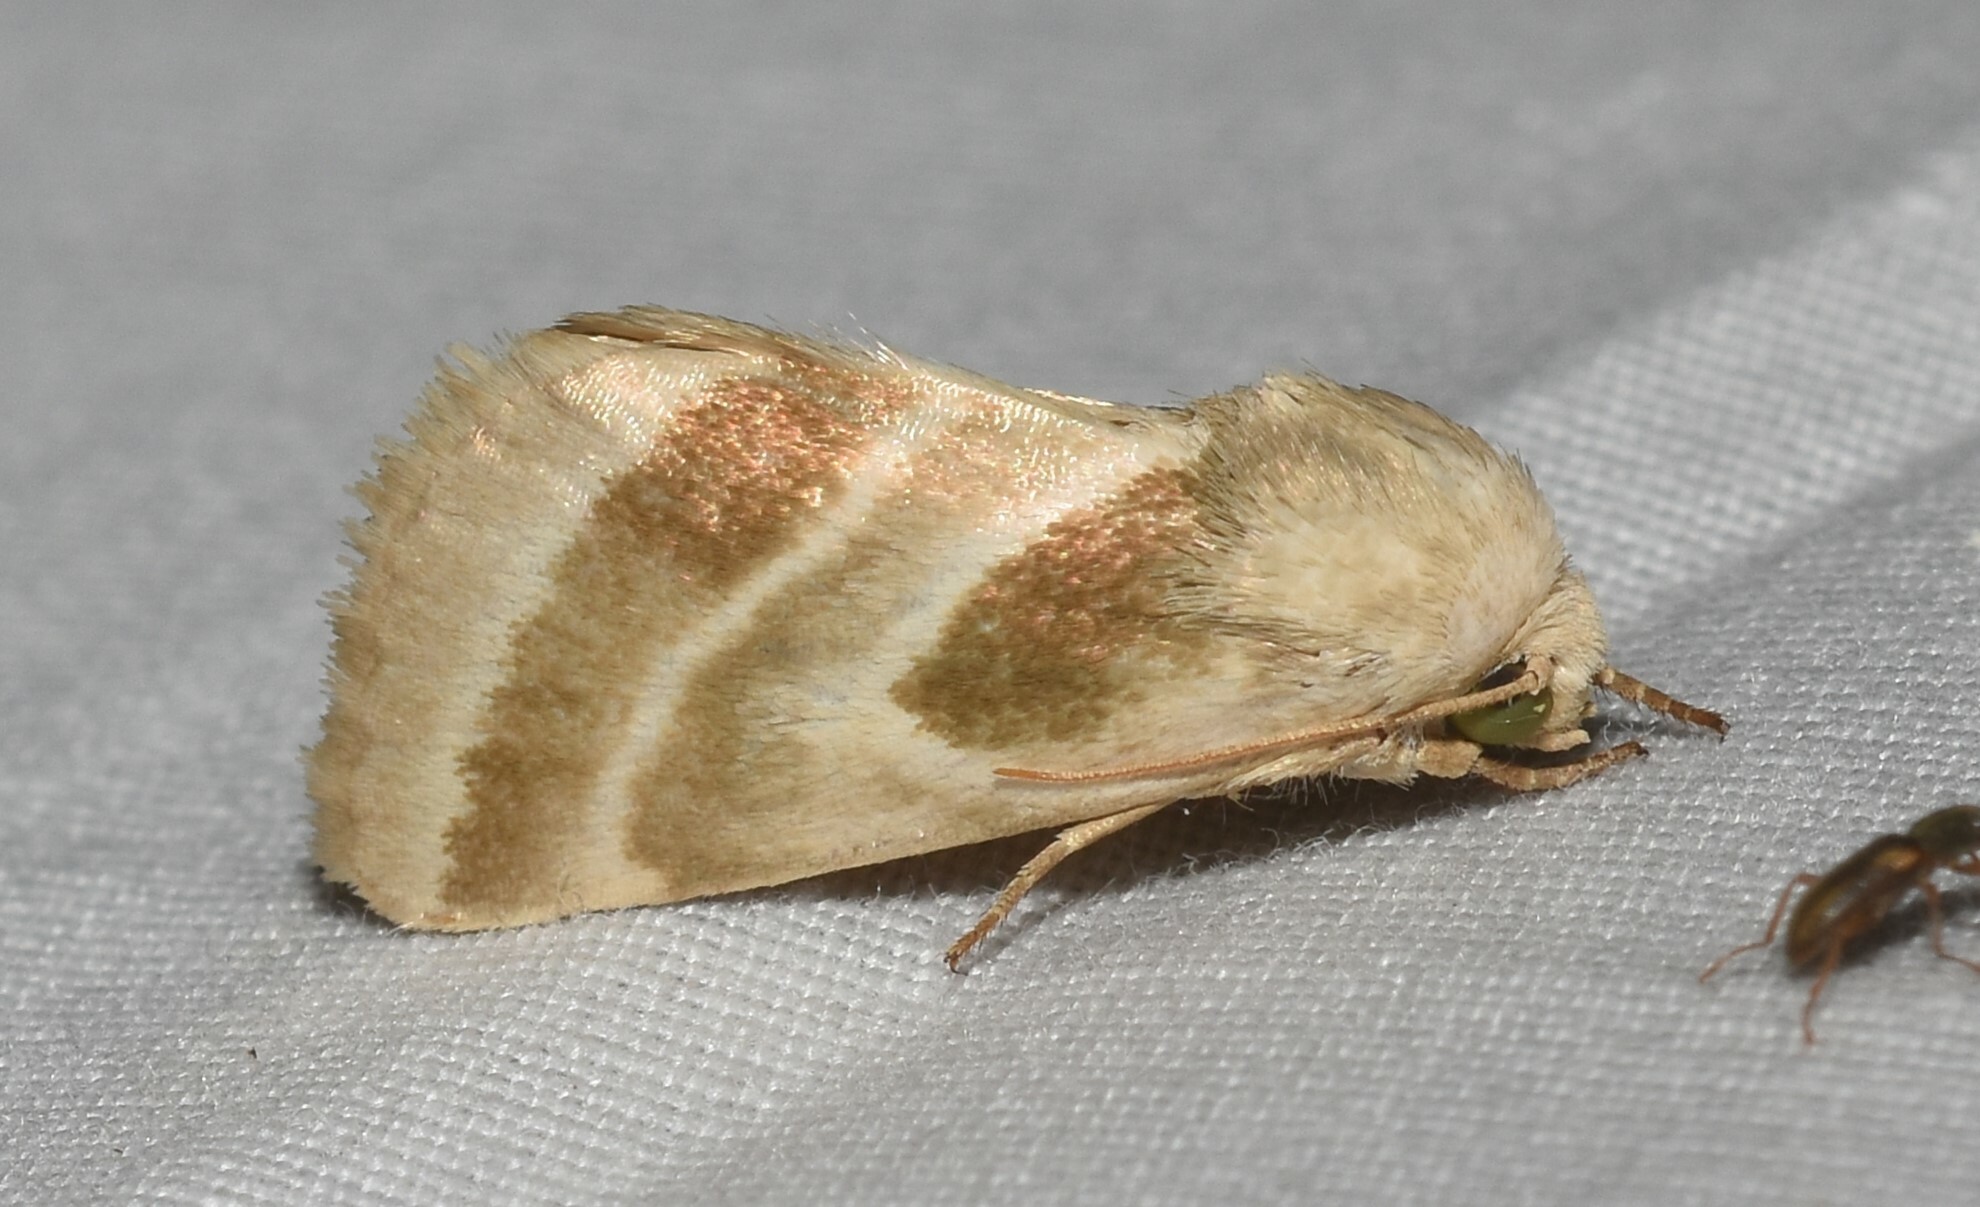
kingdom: Animalia
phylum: Arthropoda
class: Insecta
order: Lepidoptera
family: Noctuidae
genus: Schinia
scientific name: Schinia trifascia
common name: Three-lined flower moth
